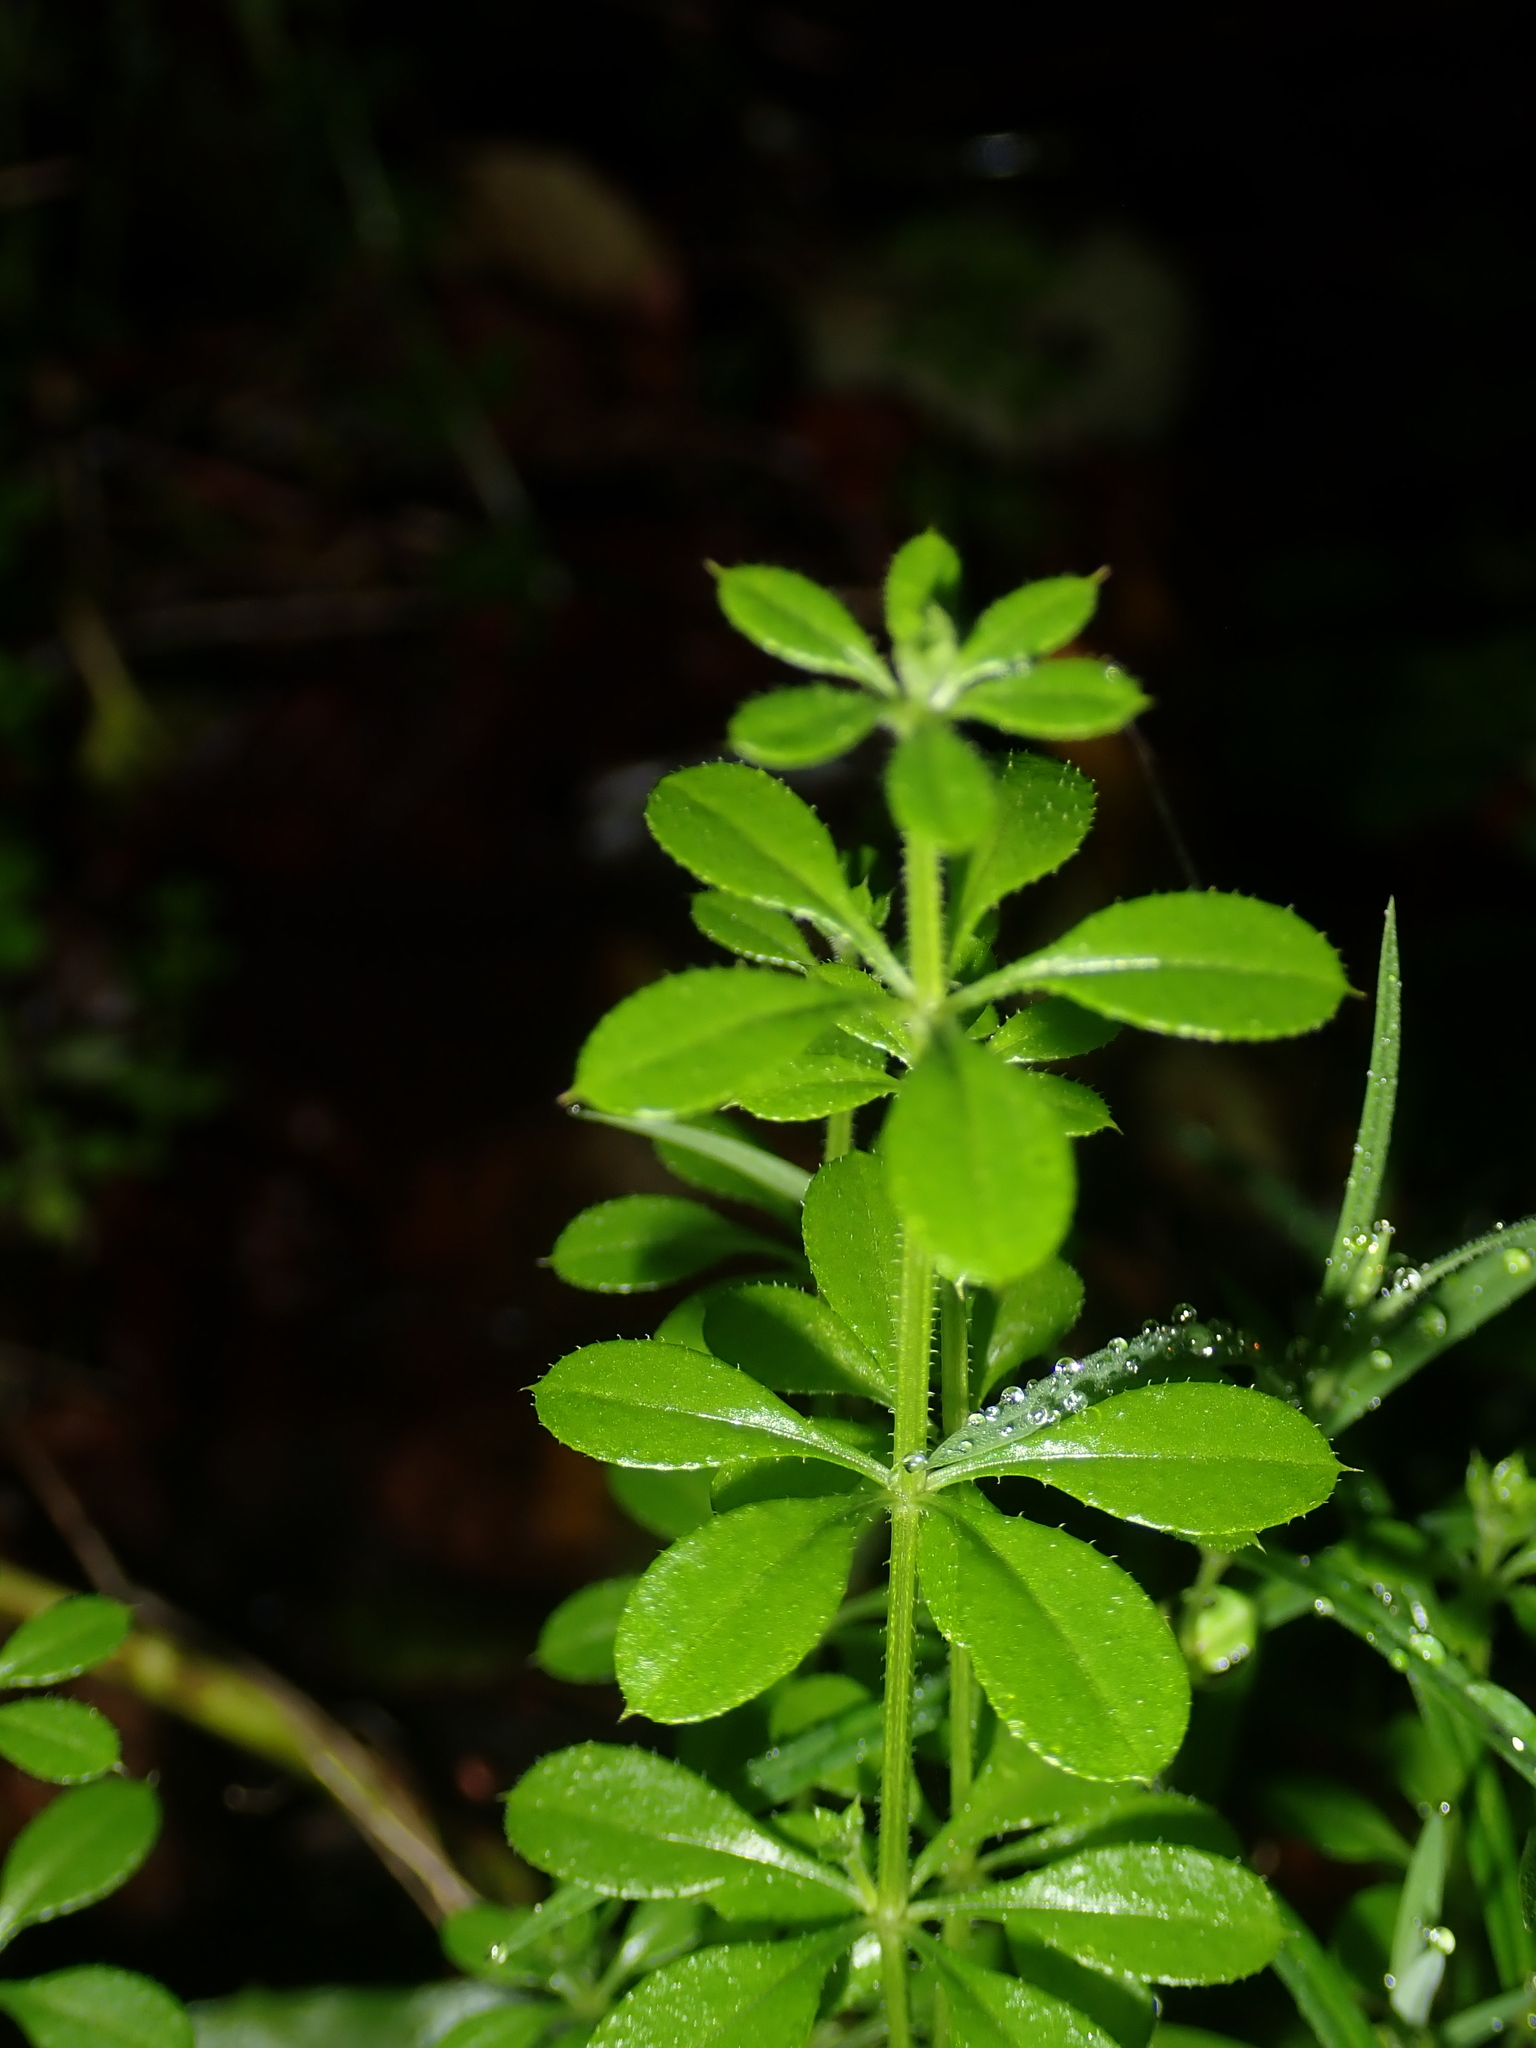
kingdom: Plantae
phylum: Tracheophyta
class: Magnoliopsida
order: Gentianales
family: Rubiaceae
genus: Galium
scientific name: Galium aparine
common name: Cleavers
